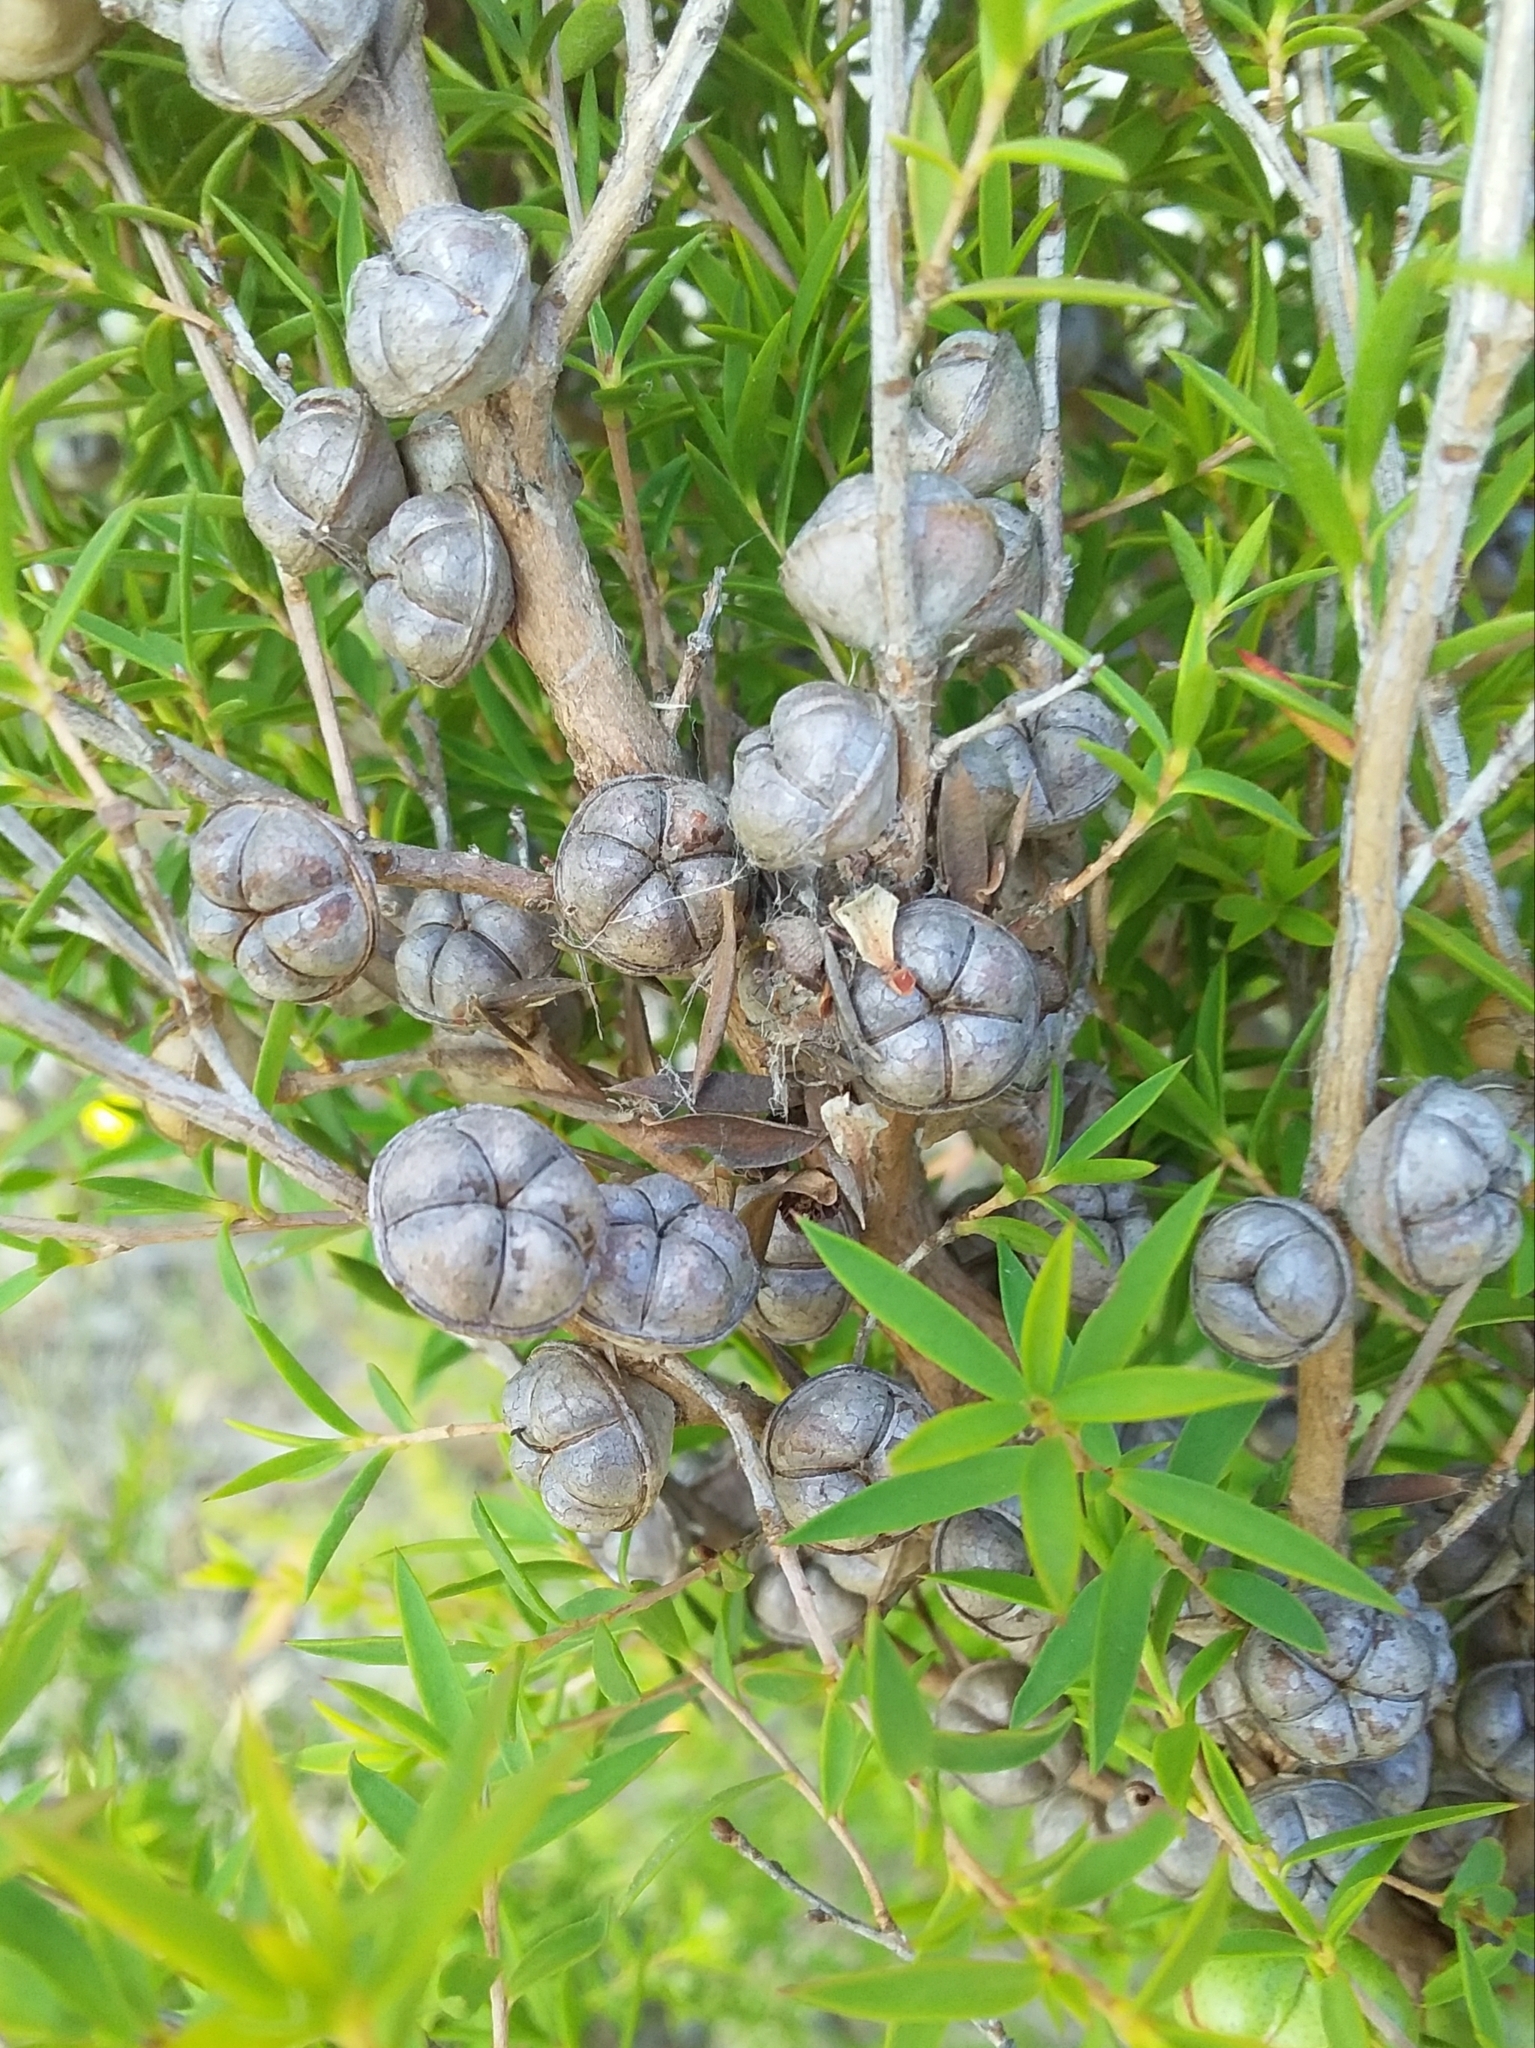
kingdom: Plantae
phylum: Tracheophyta
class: Magnoliopsida
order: Myrtales
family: Myrtaceae
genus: Leptospermum
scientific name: Leptospermum continentale
